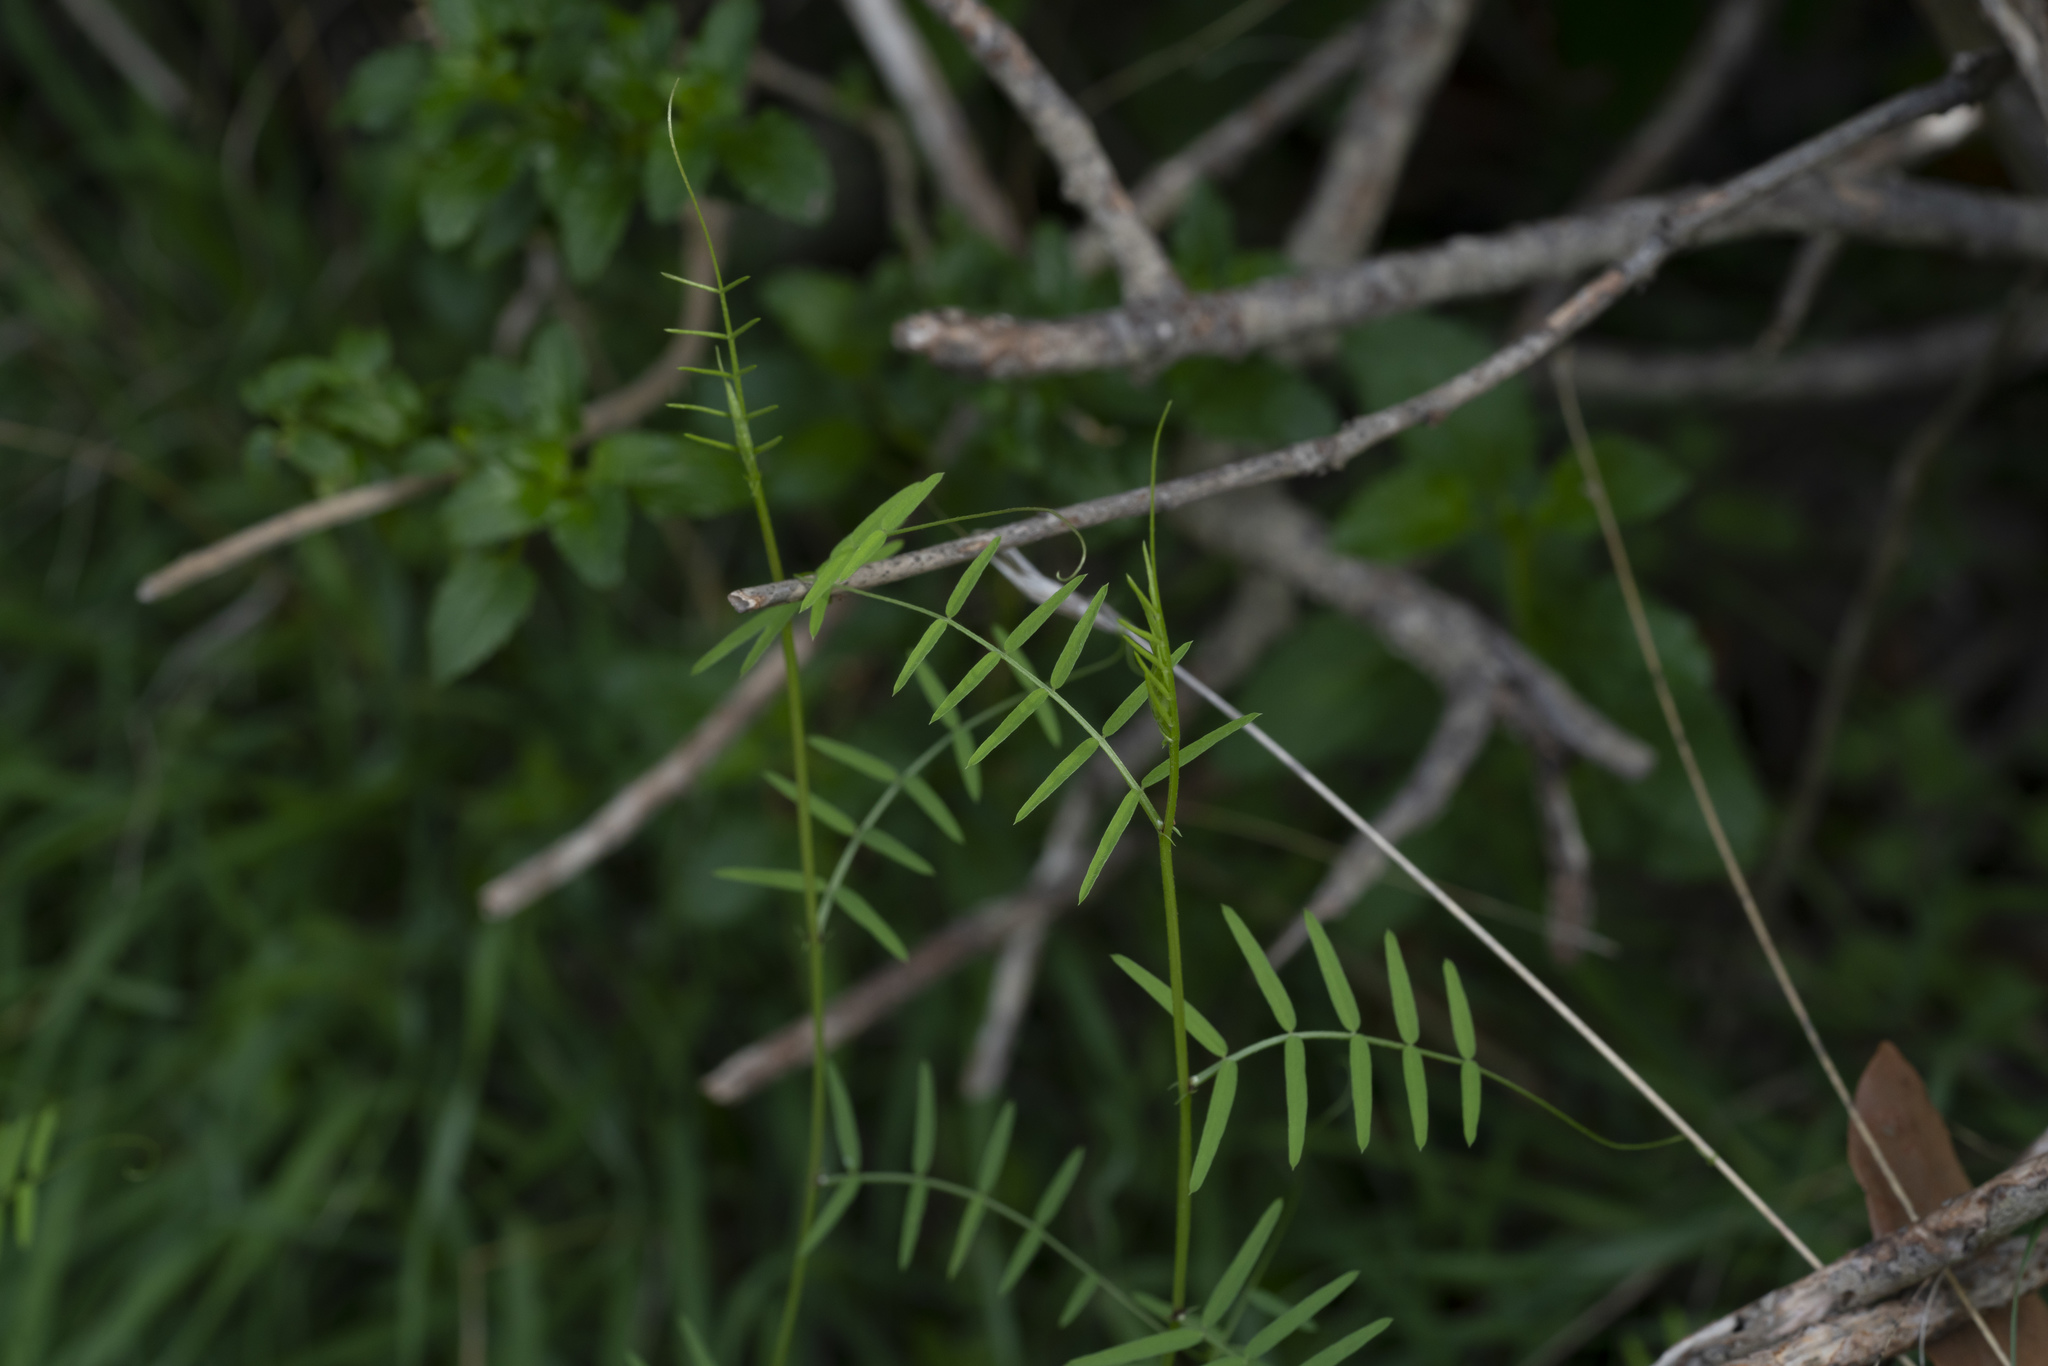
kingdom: Plantae
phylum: Tracheophyta
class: Magnoliopsida
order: Fabales
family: Fabaceae
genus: Vicia
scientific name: Vicia palaestina
